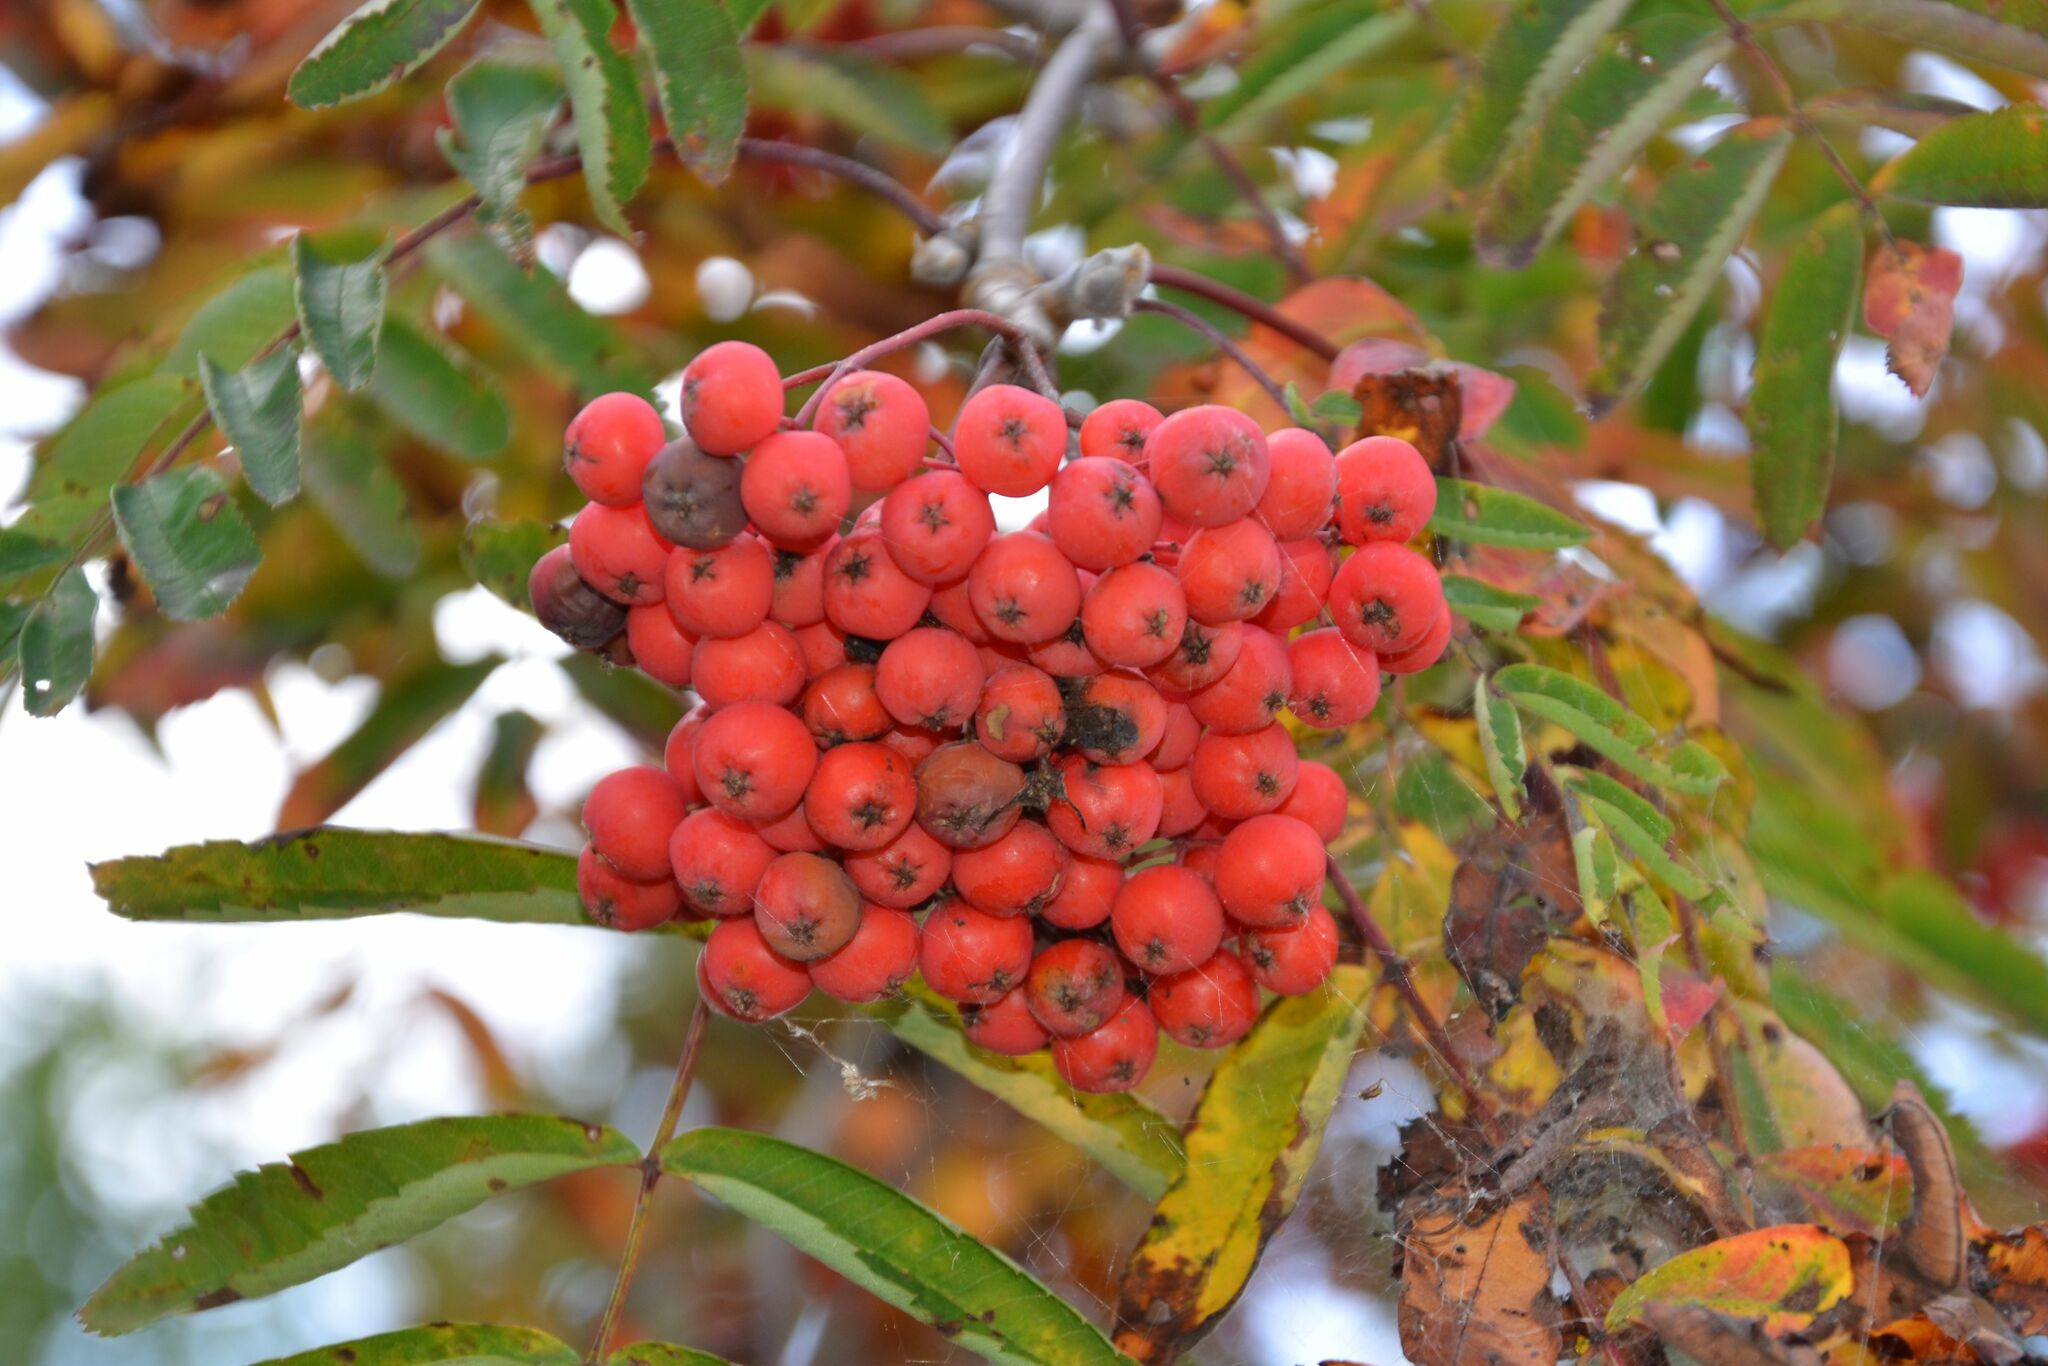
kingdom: Plantae
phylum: Tracheophyta
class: Magnoliopsida
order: Rosales
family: Rosaceae
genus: Sorbus
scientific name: Sorbus aucuparia
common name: Rowan
